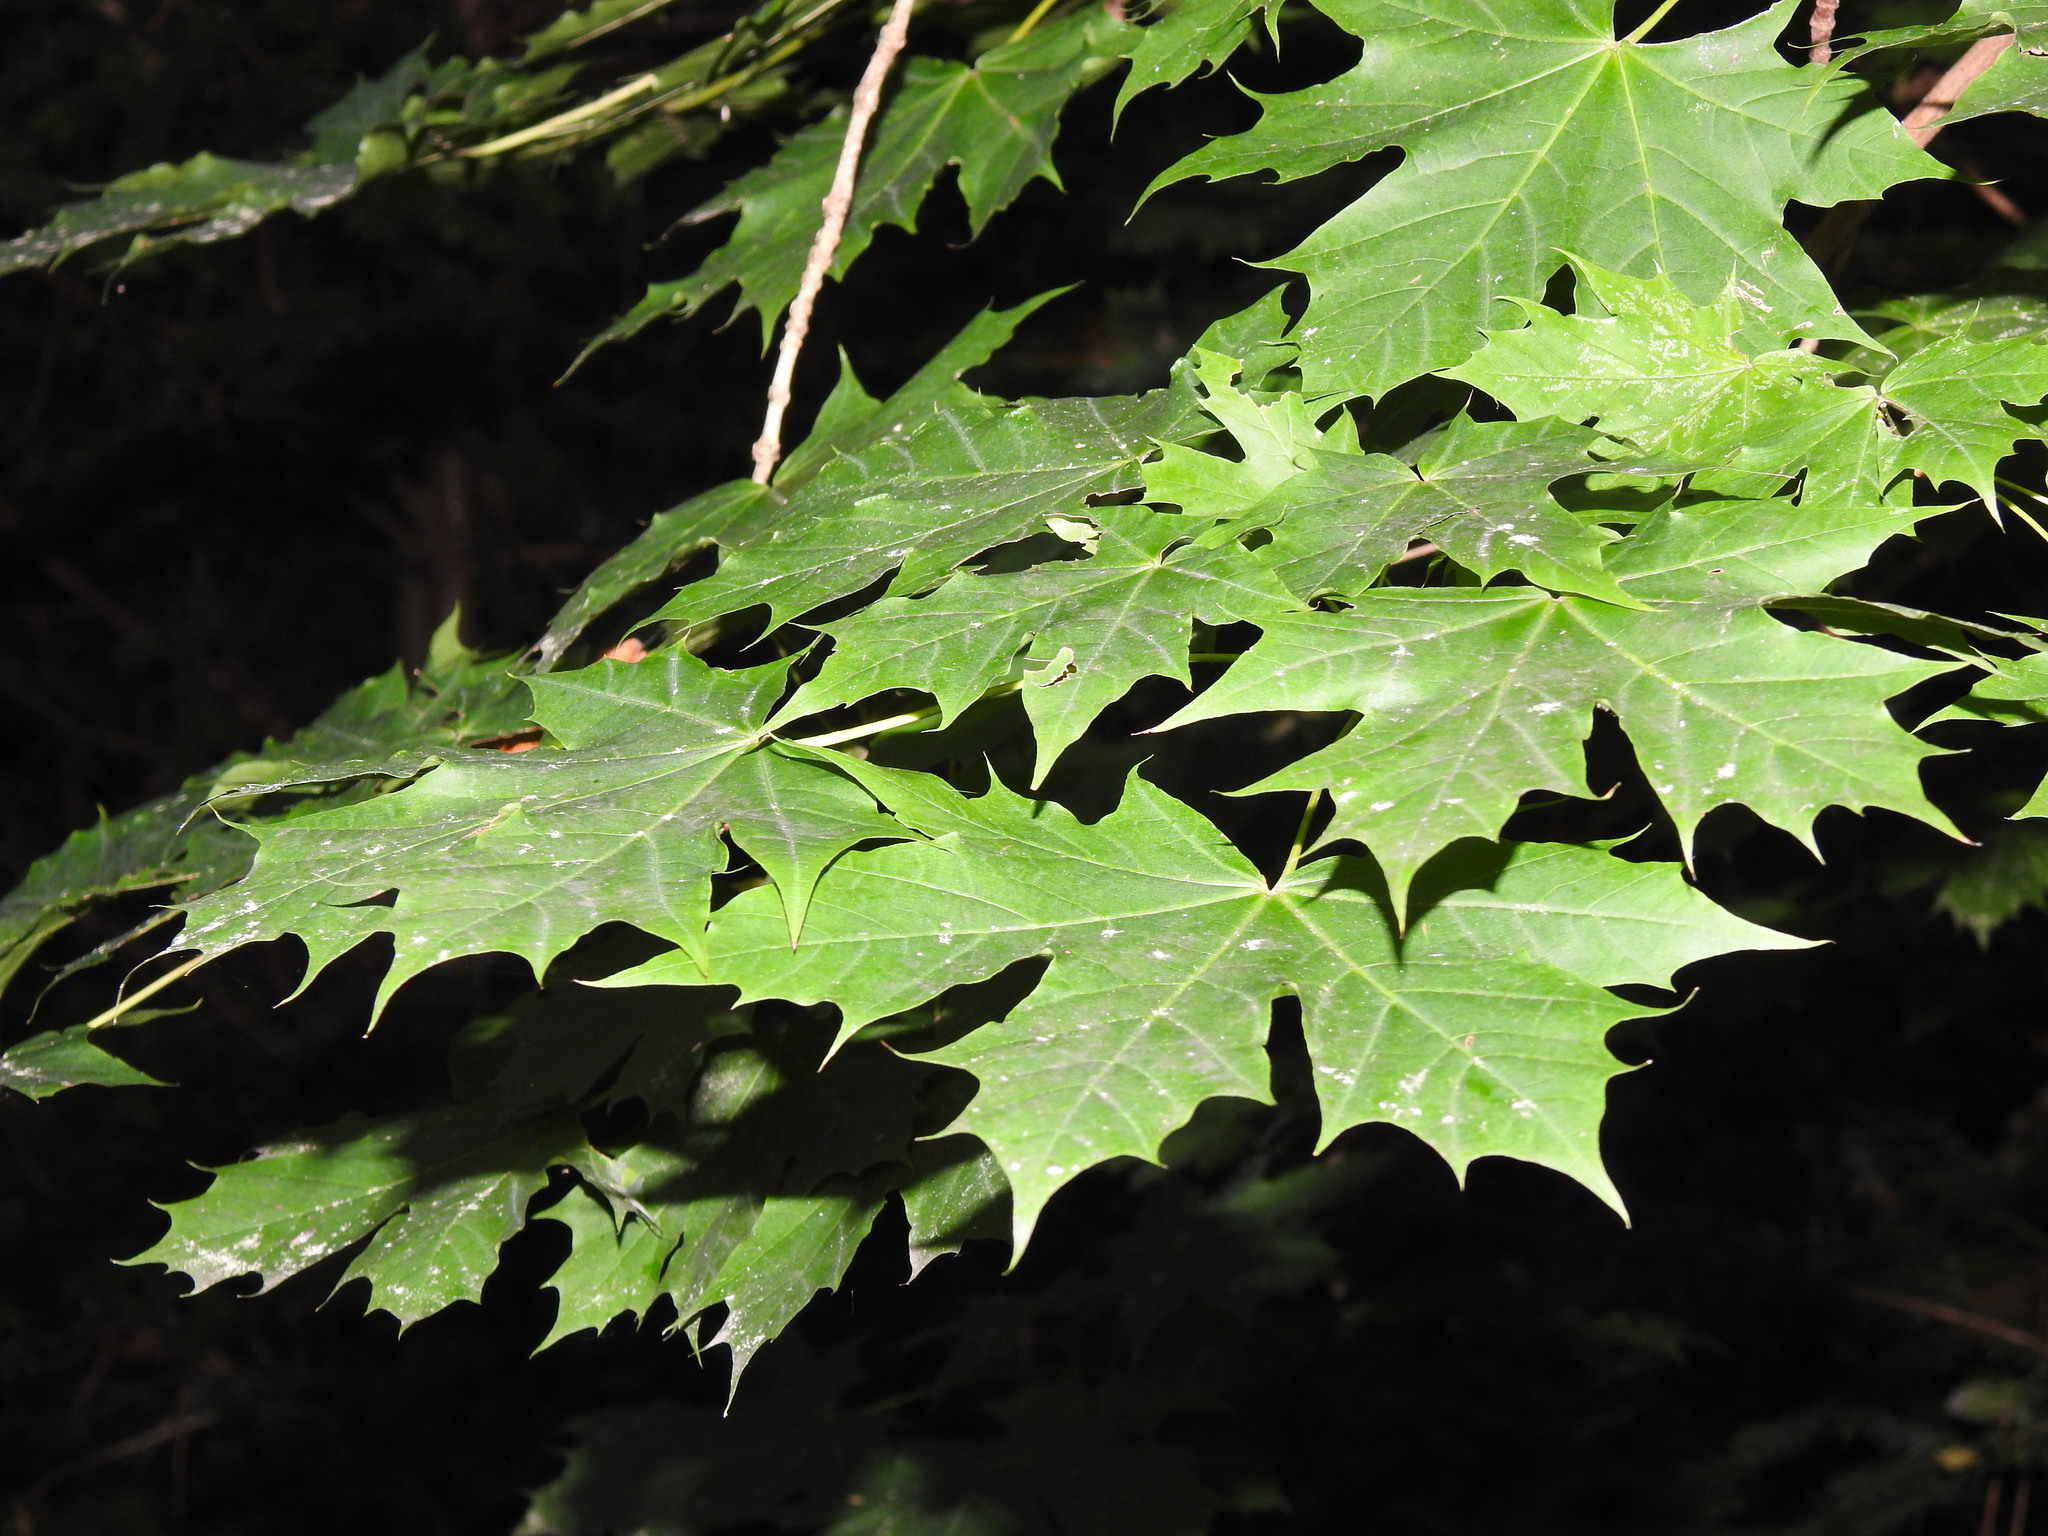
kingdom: Plantae
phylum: Tracheophyta
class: Magnoliopsida
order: Sapindales
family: Sapindaceae
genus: Acer
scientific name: Acer platanoides
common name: Norway maple
